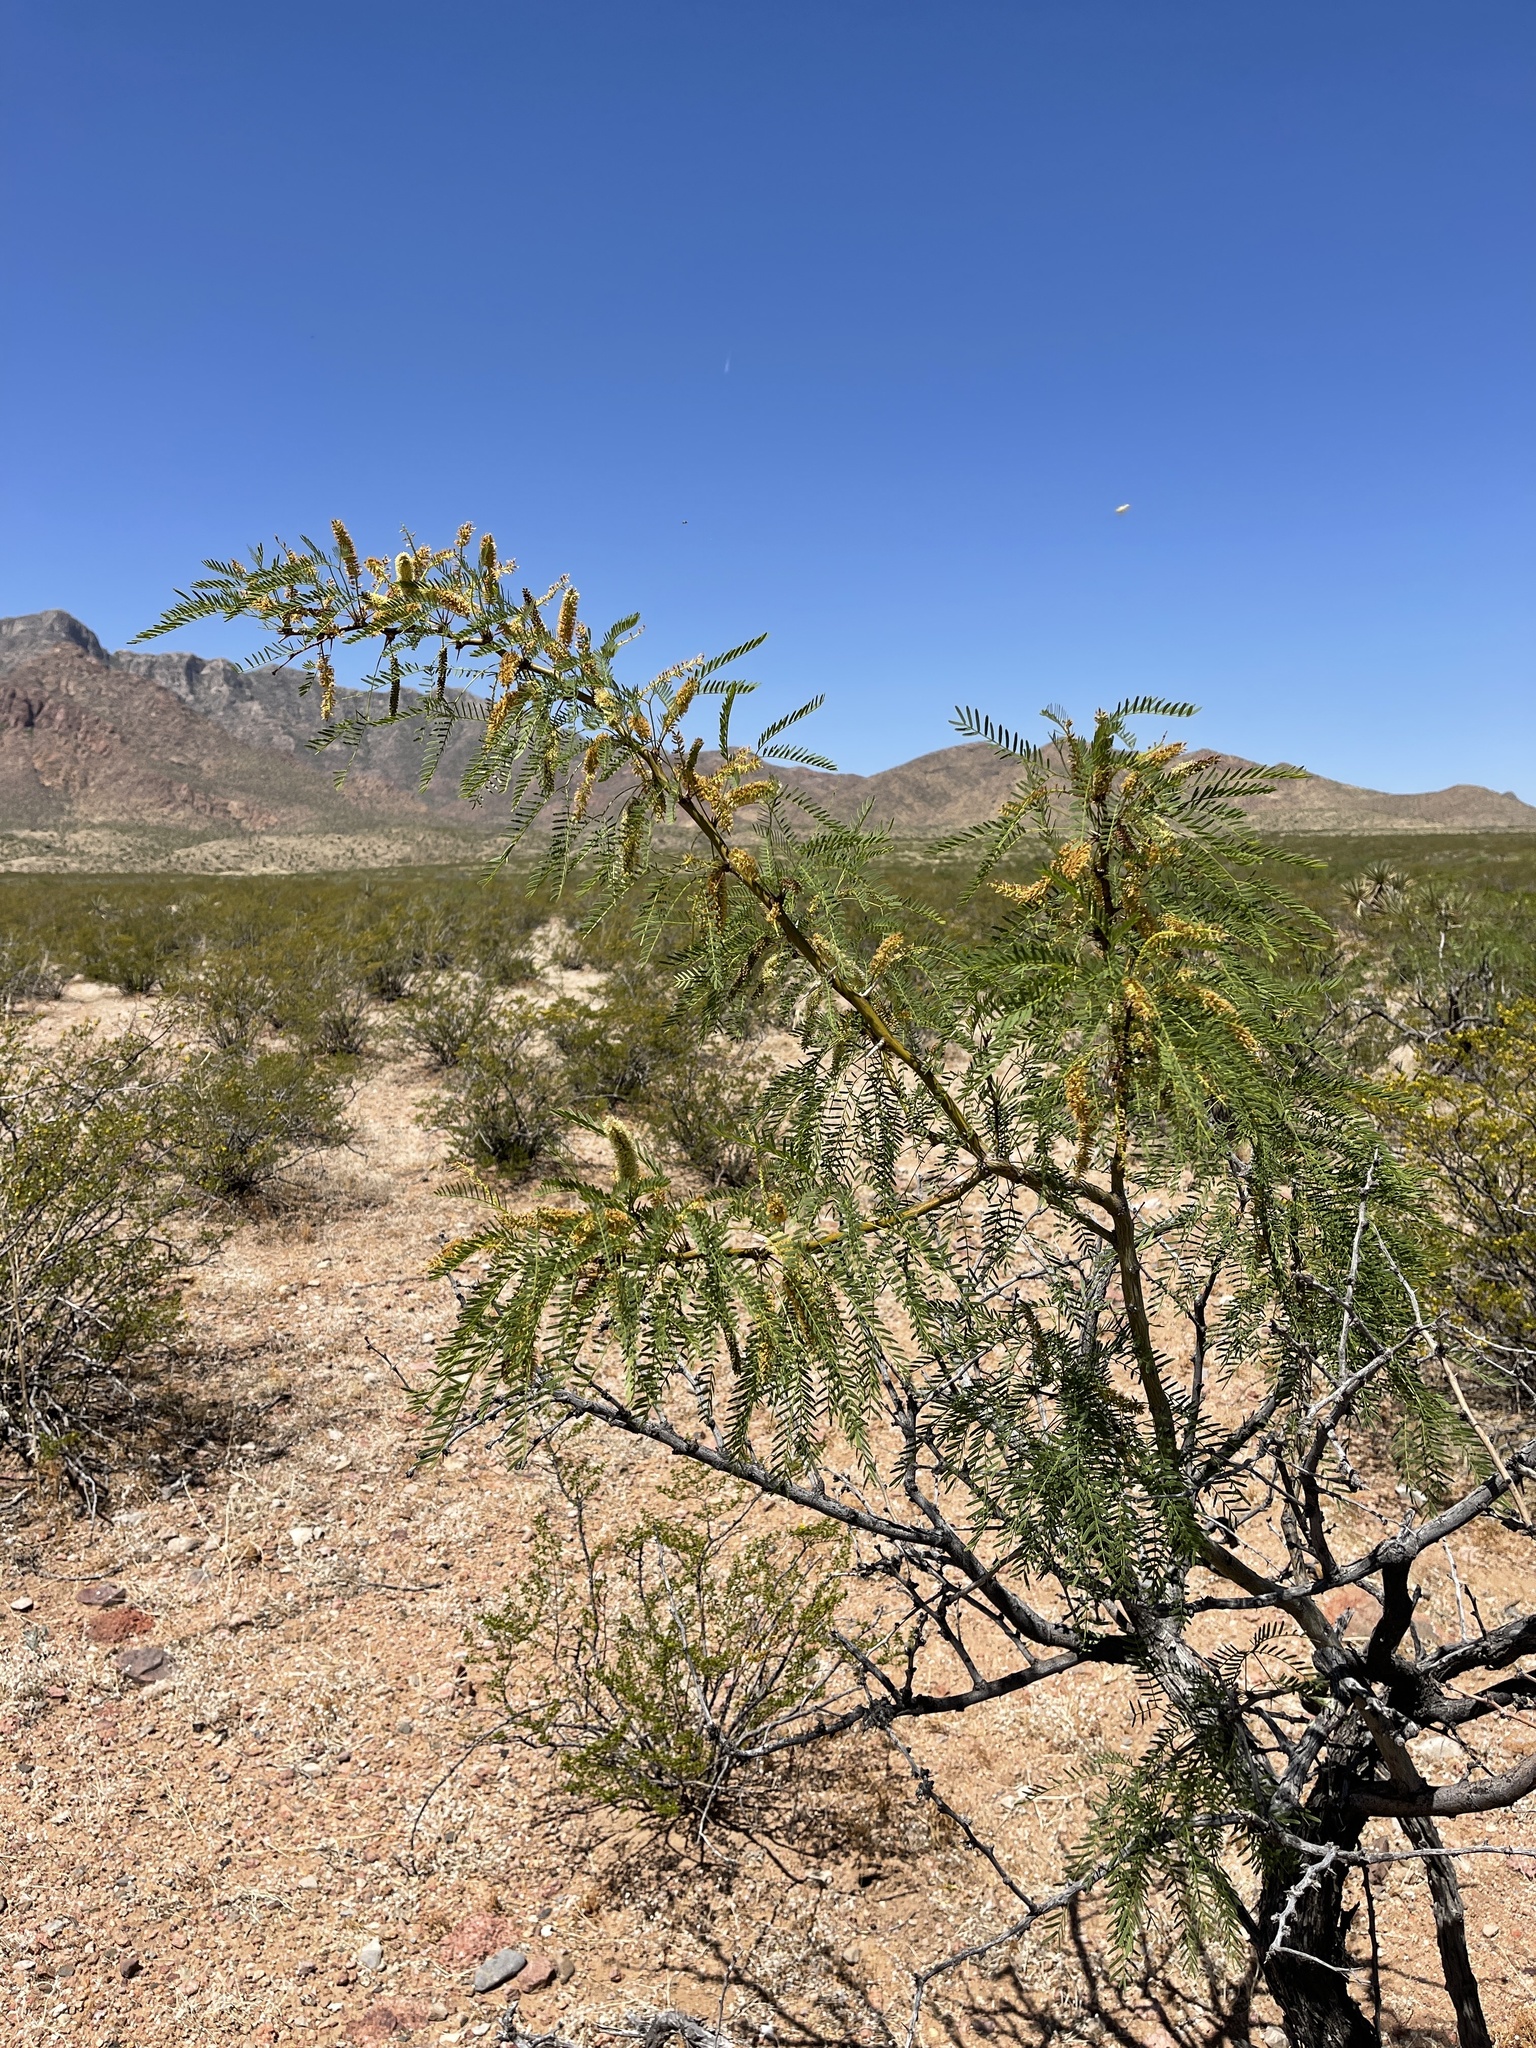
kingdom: Plantae
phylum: Tracheophyta
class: Magnoliopsida
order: Fabales
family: Fabaceae
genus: Prosopis
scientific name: Prosopis pubescens
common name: Screw-bean
